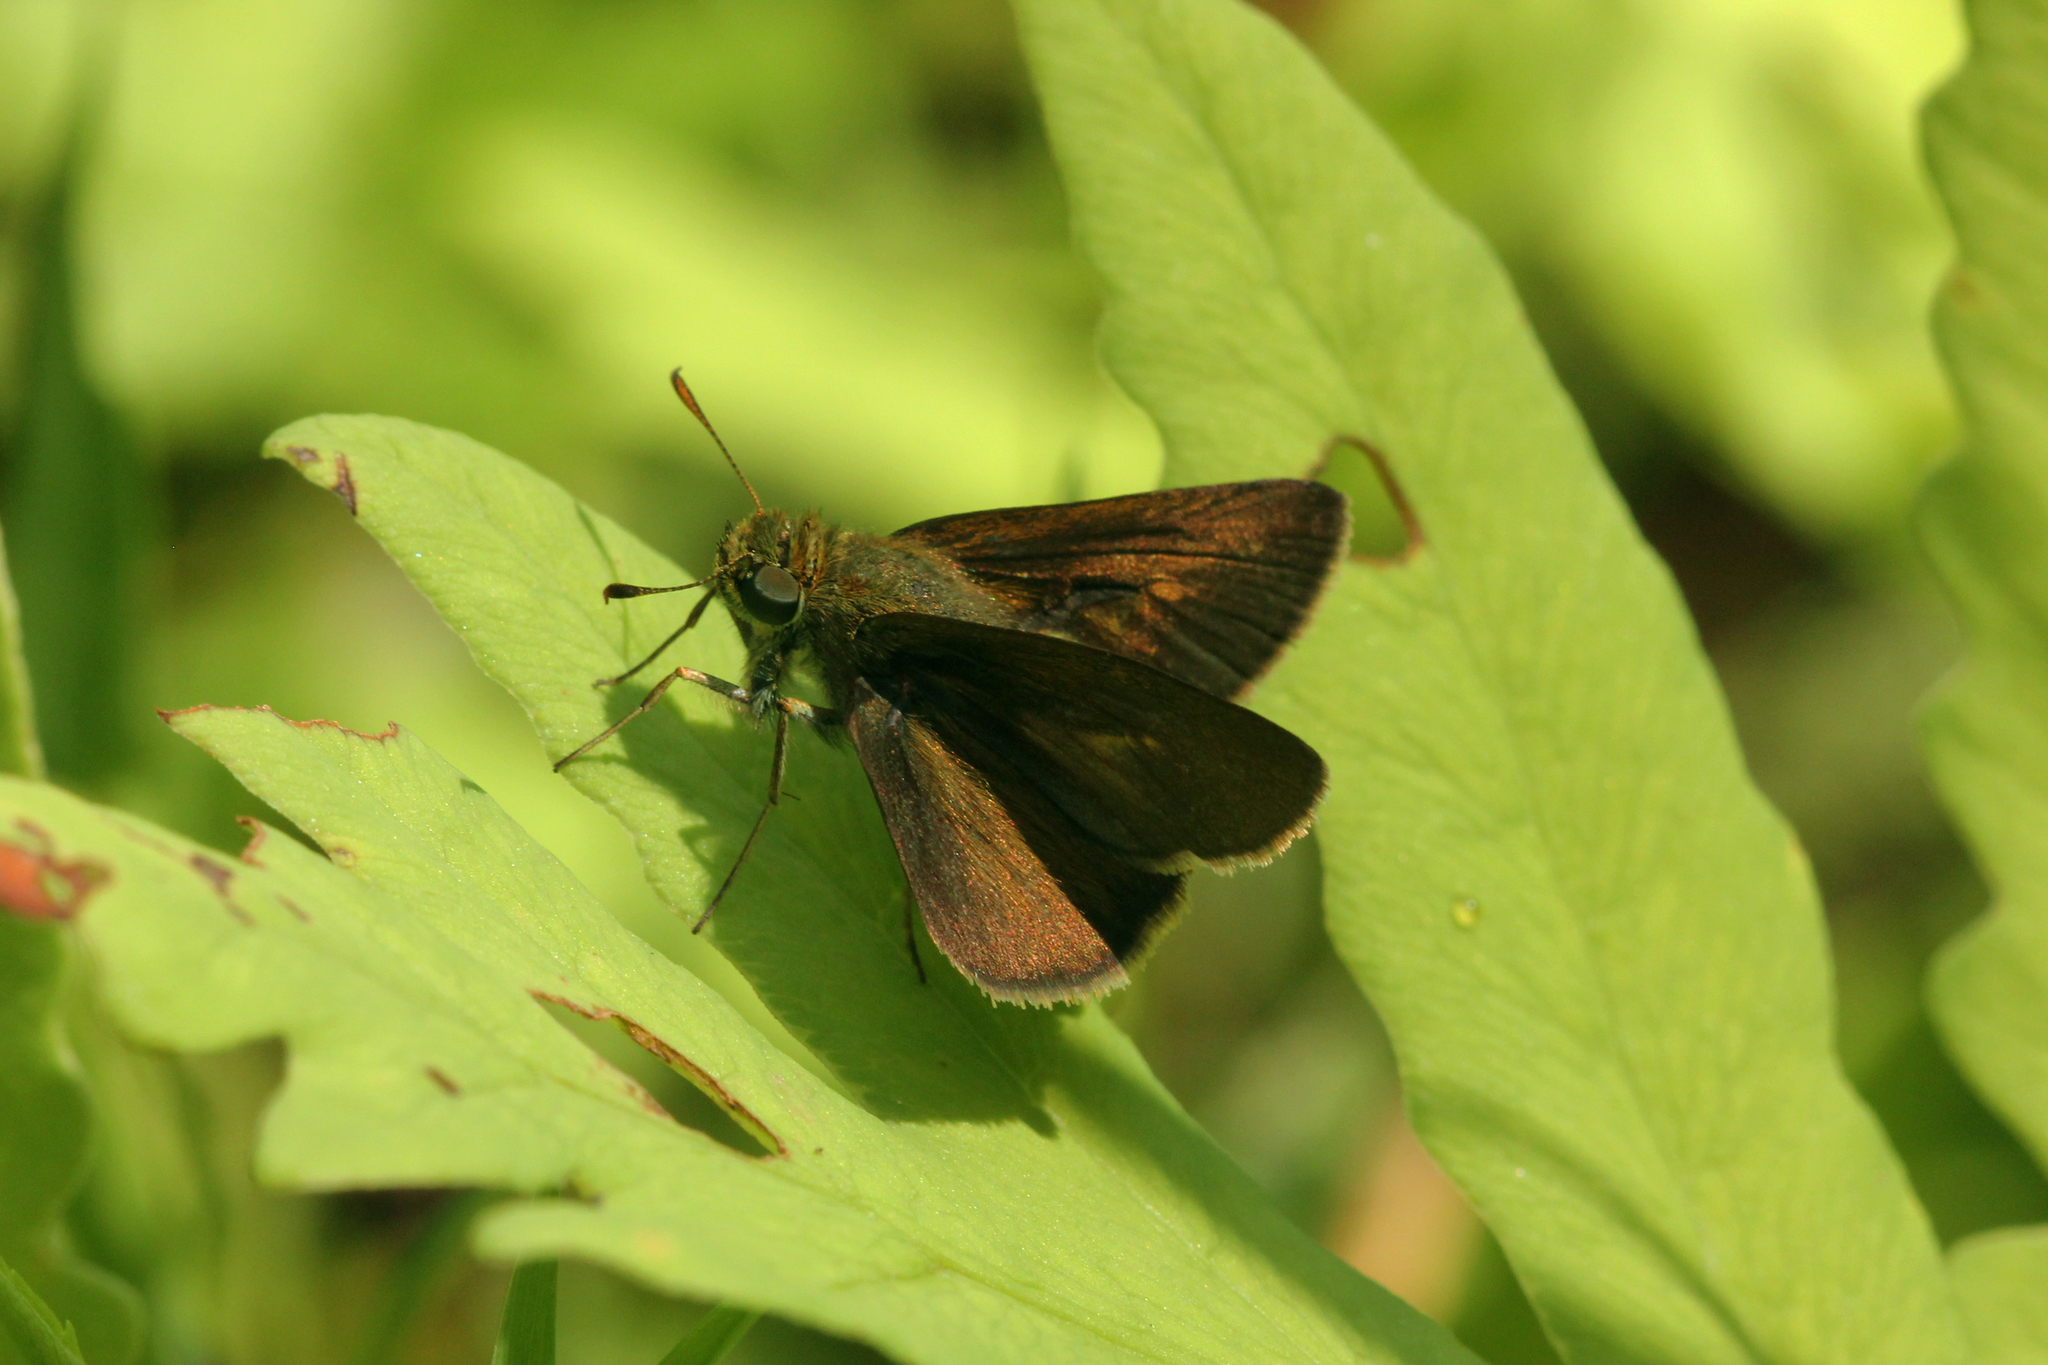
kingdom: Animalia
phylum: Arthropoda
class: Insecta
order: Lepidoptera
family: Hesperiidae
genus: Poanes
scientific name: Poanes massasoit
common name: Mulberrywing
